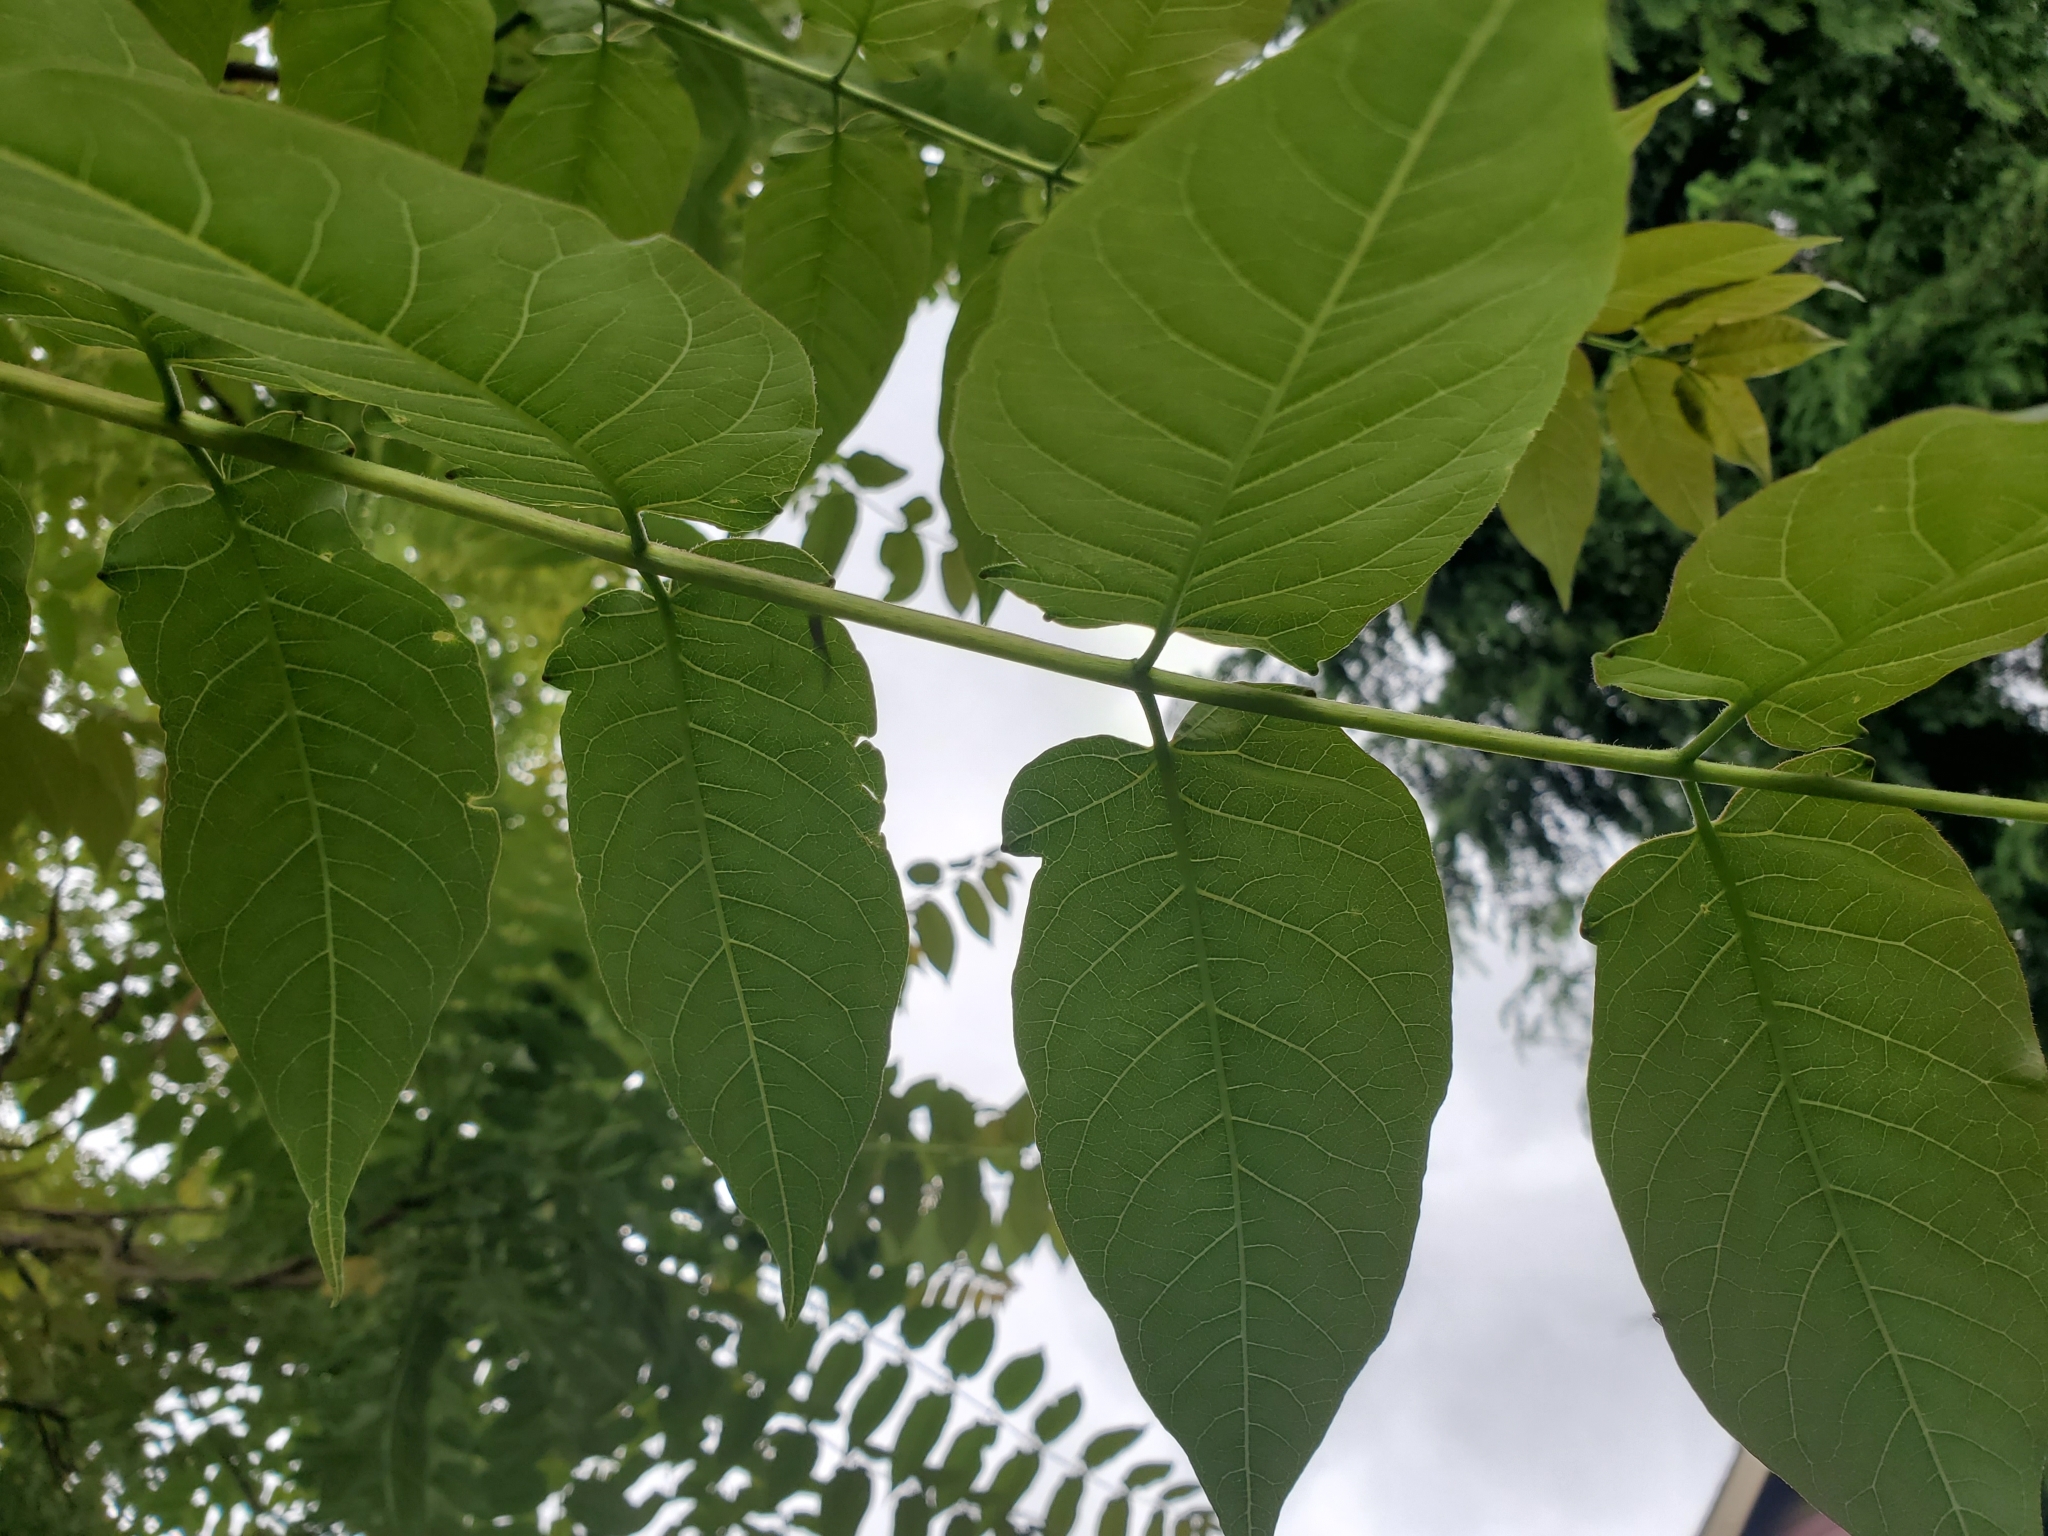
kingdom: Plantae
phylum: Tracheophyta
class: Magnoliopsida
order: Sapindales
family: Simaroubaceae
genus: Ailanthus
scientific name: Ailanthus altissima
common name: Tree-of-heaven
